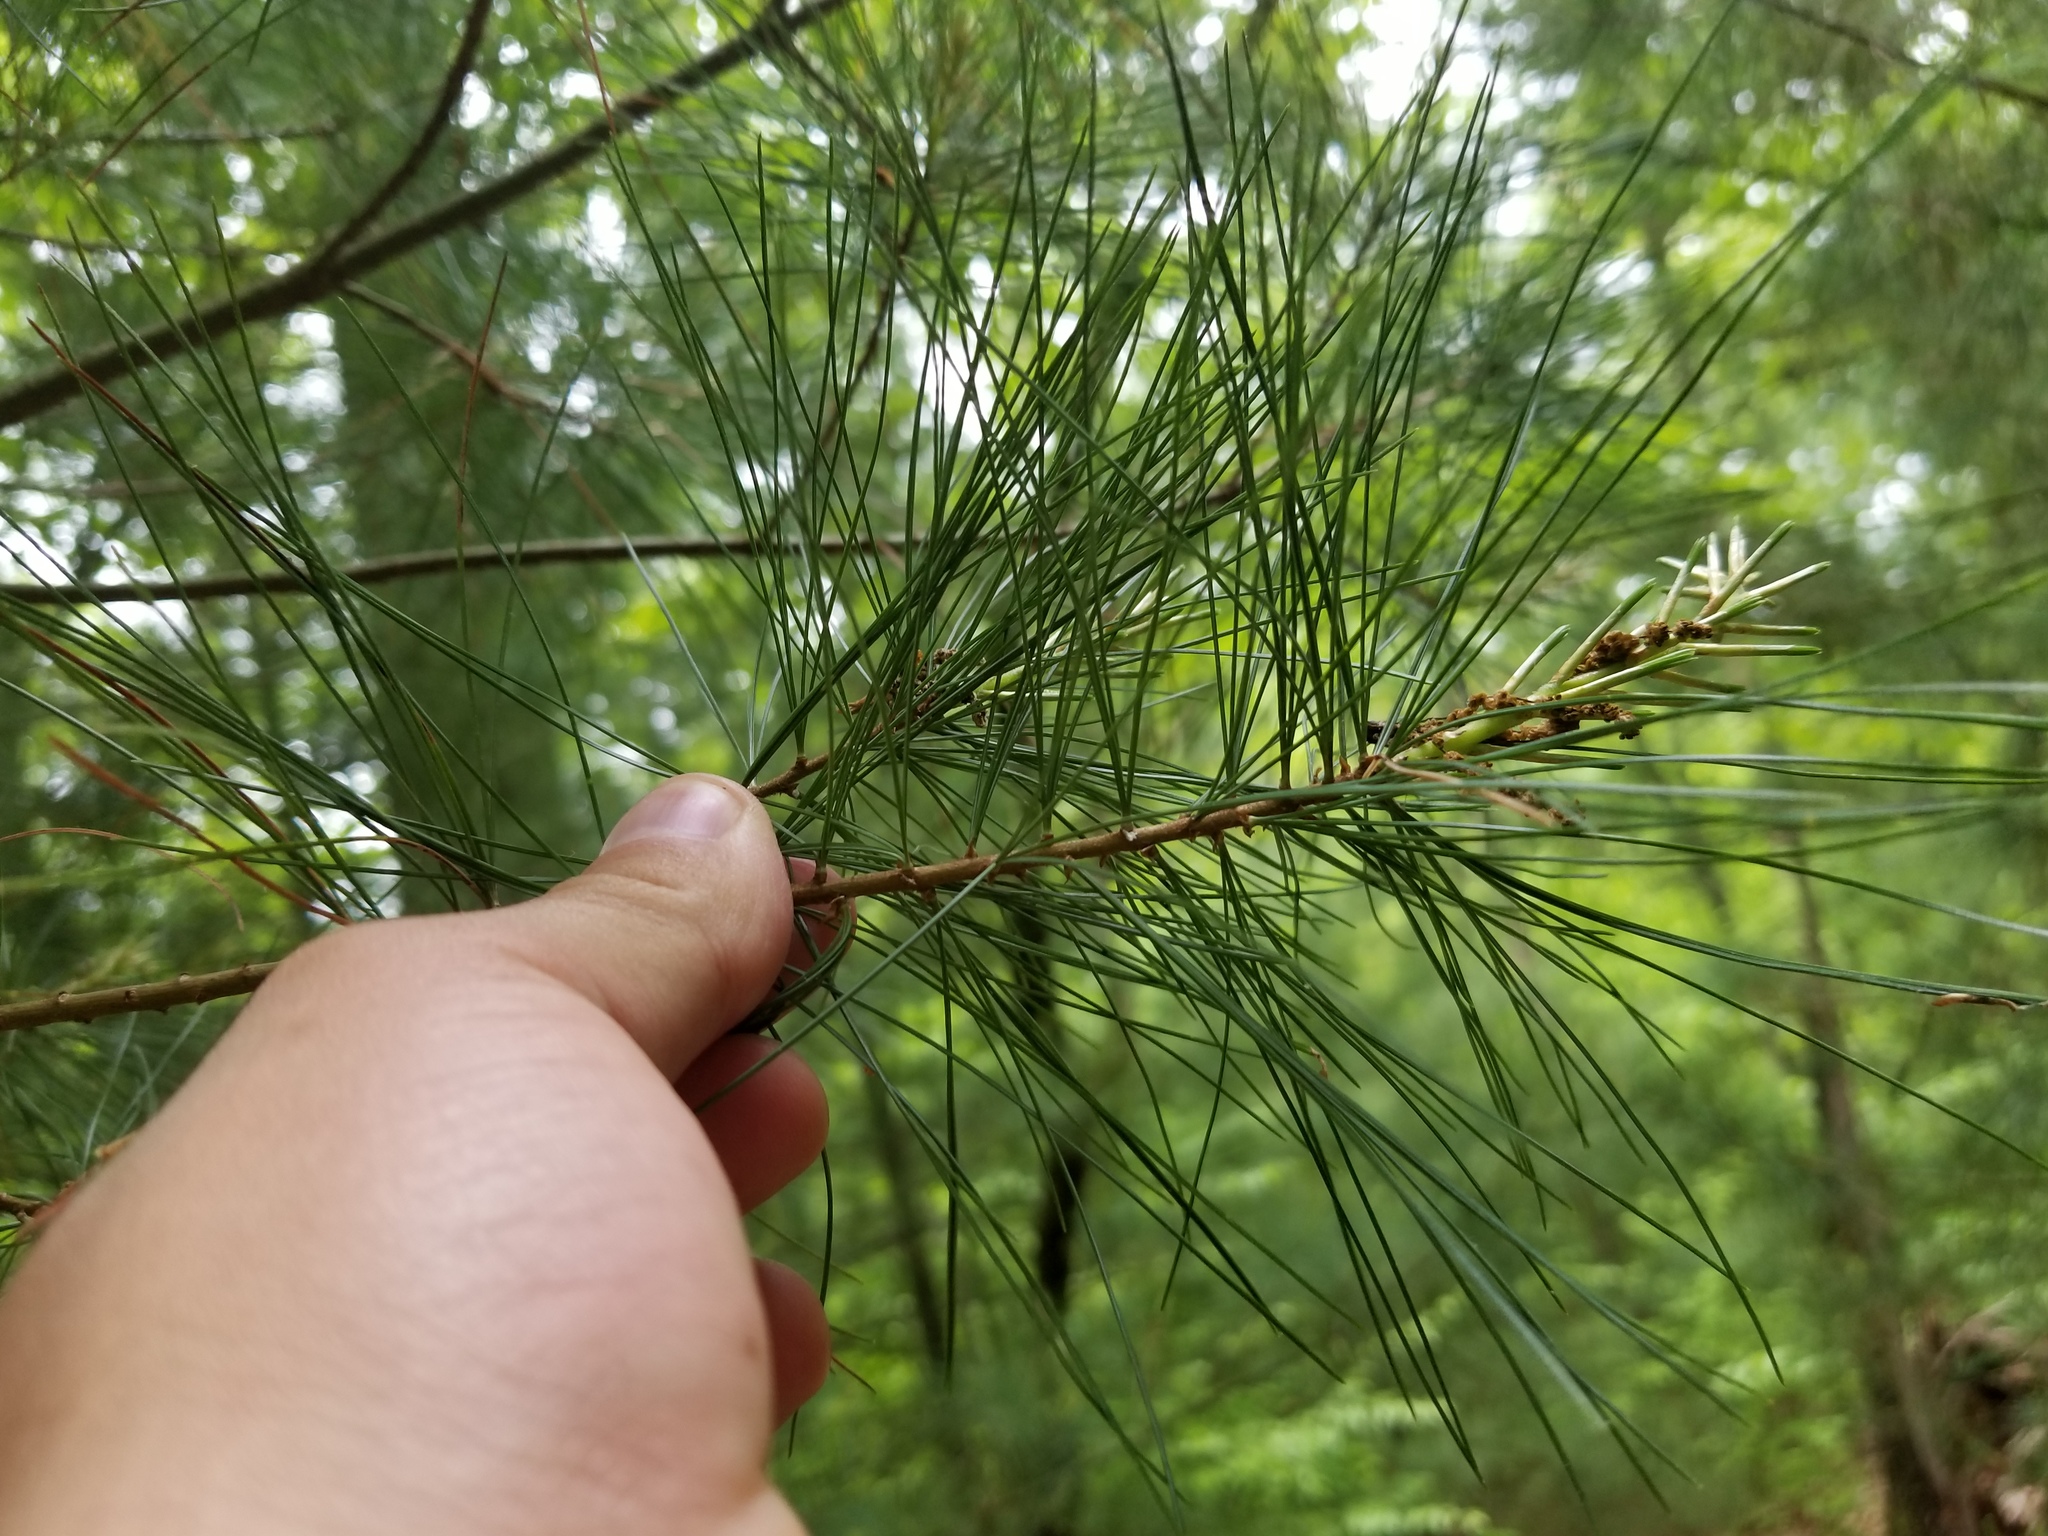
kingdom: Plantae
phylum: Tracheophyta
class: Pinopsida
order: Pinales
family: Pinaceae
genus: Pinus
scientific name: Pinus strobus
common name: Weymouth pine
